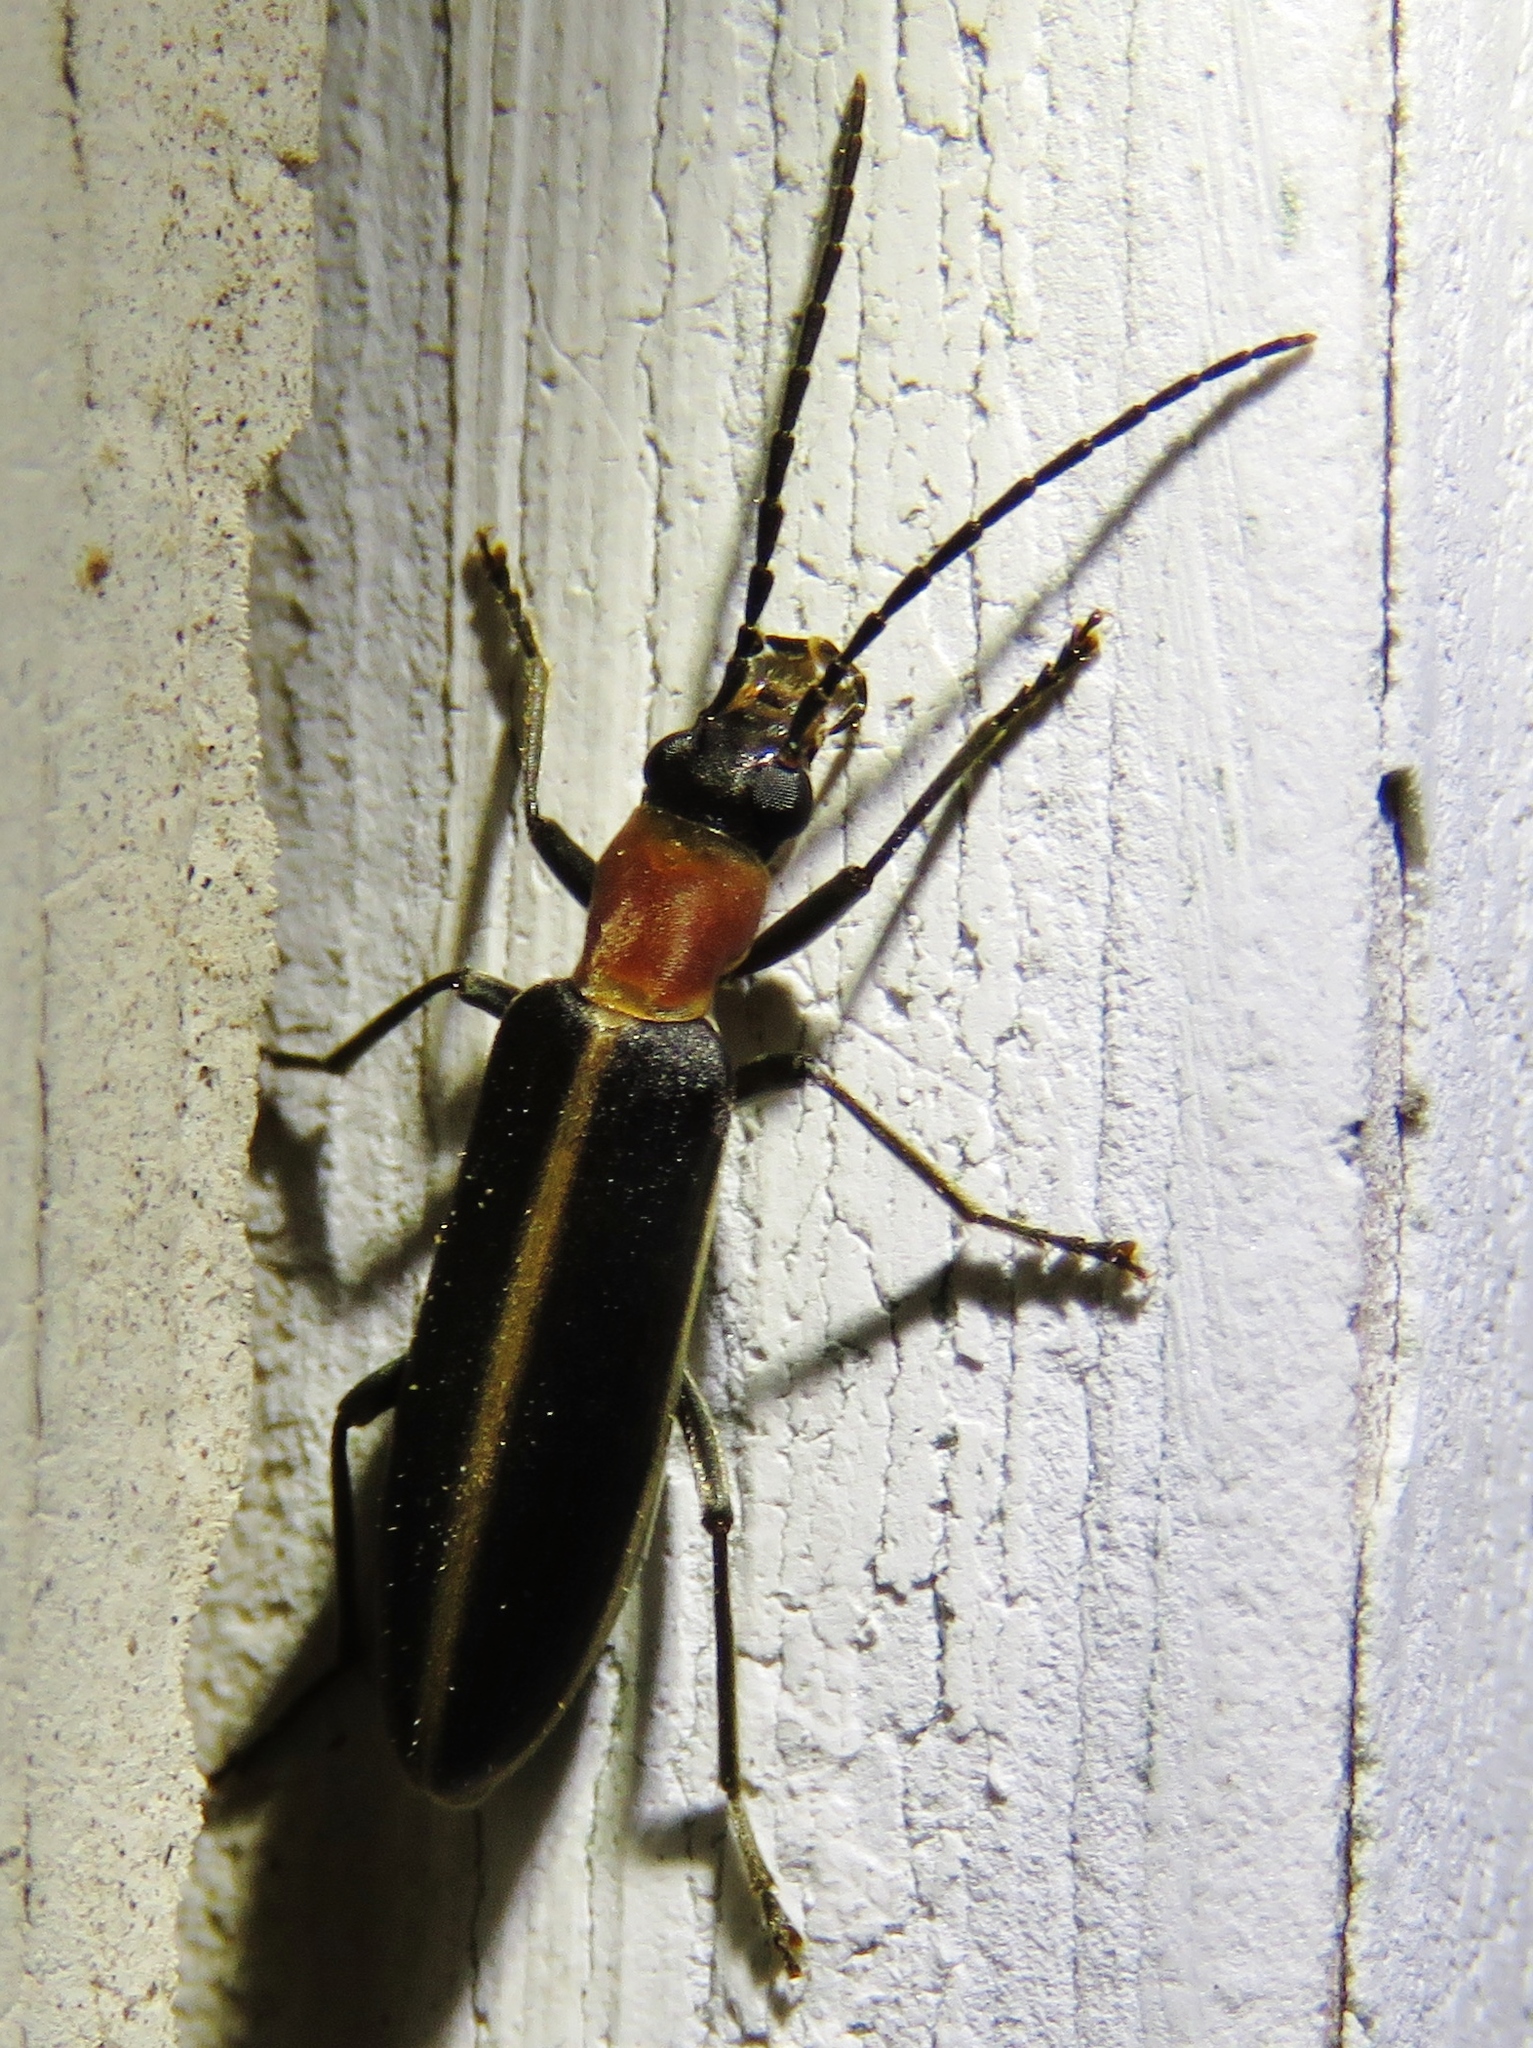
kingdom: Animalia
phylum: Arthropoda
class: Insecta
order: Coleoptera
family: Oedemeridae
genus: Oxycopis
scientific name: Oxycopis mimetica
